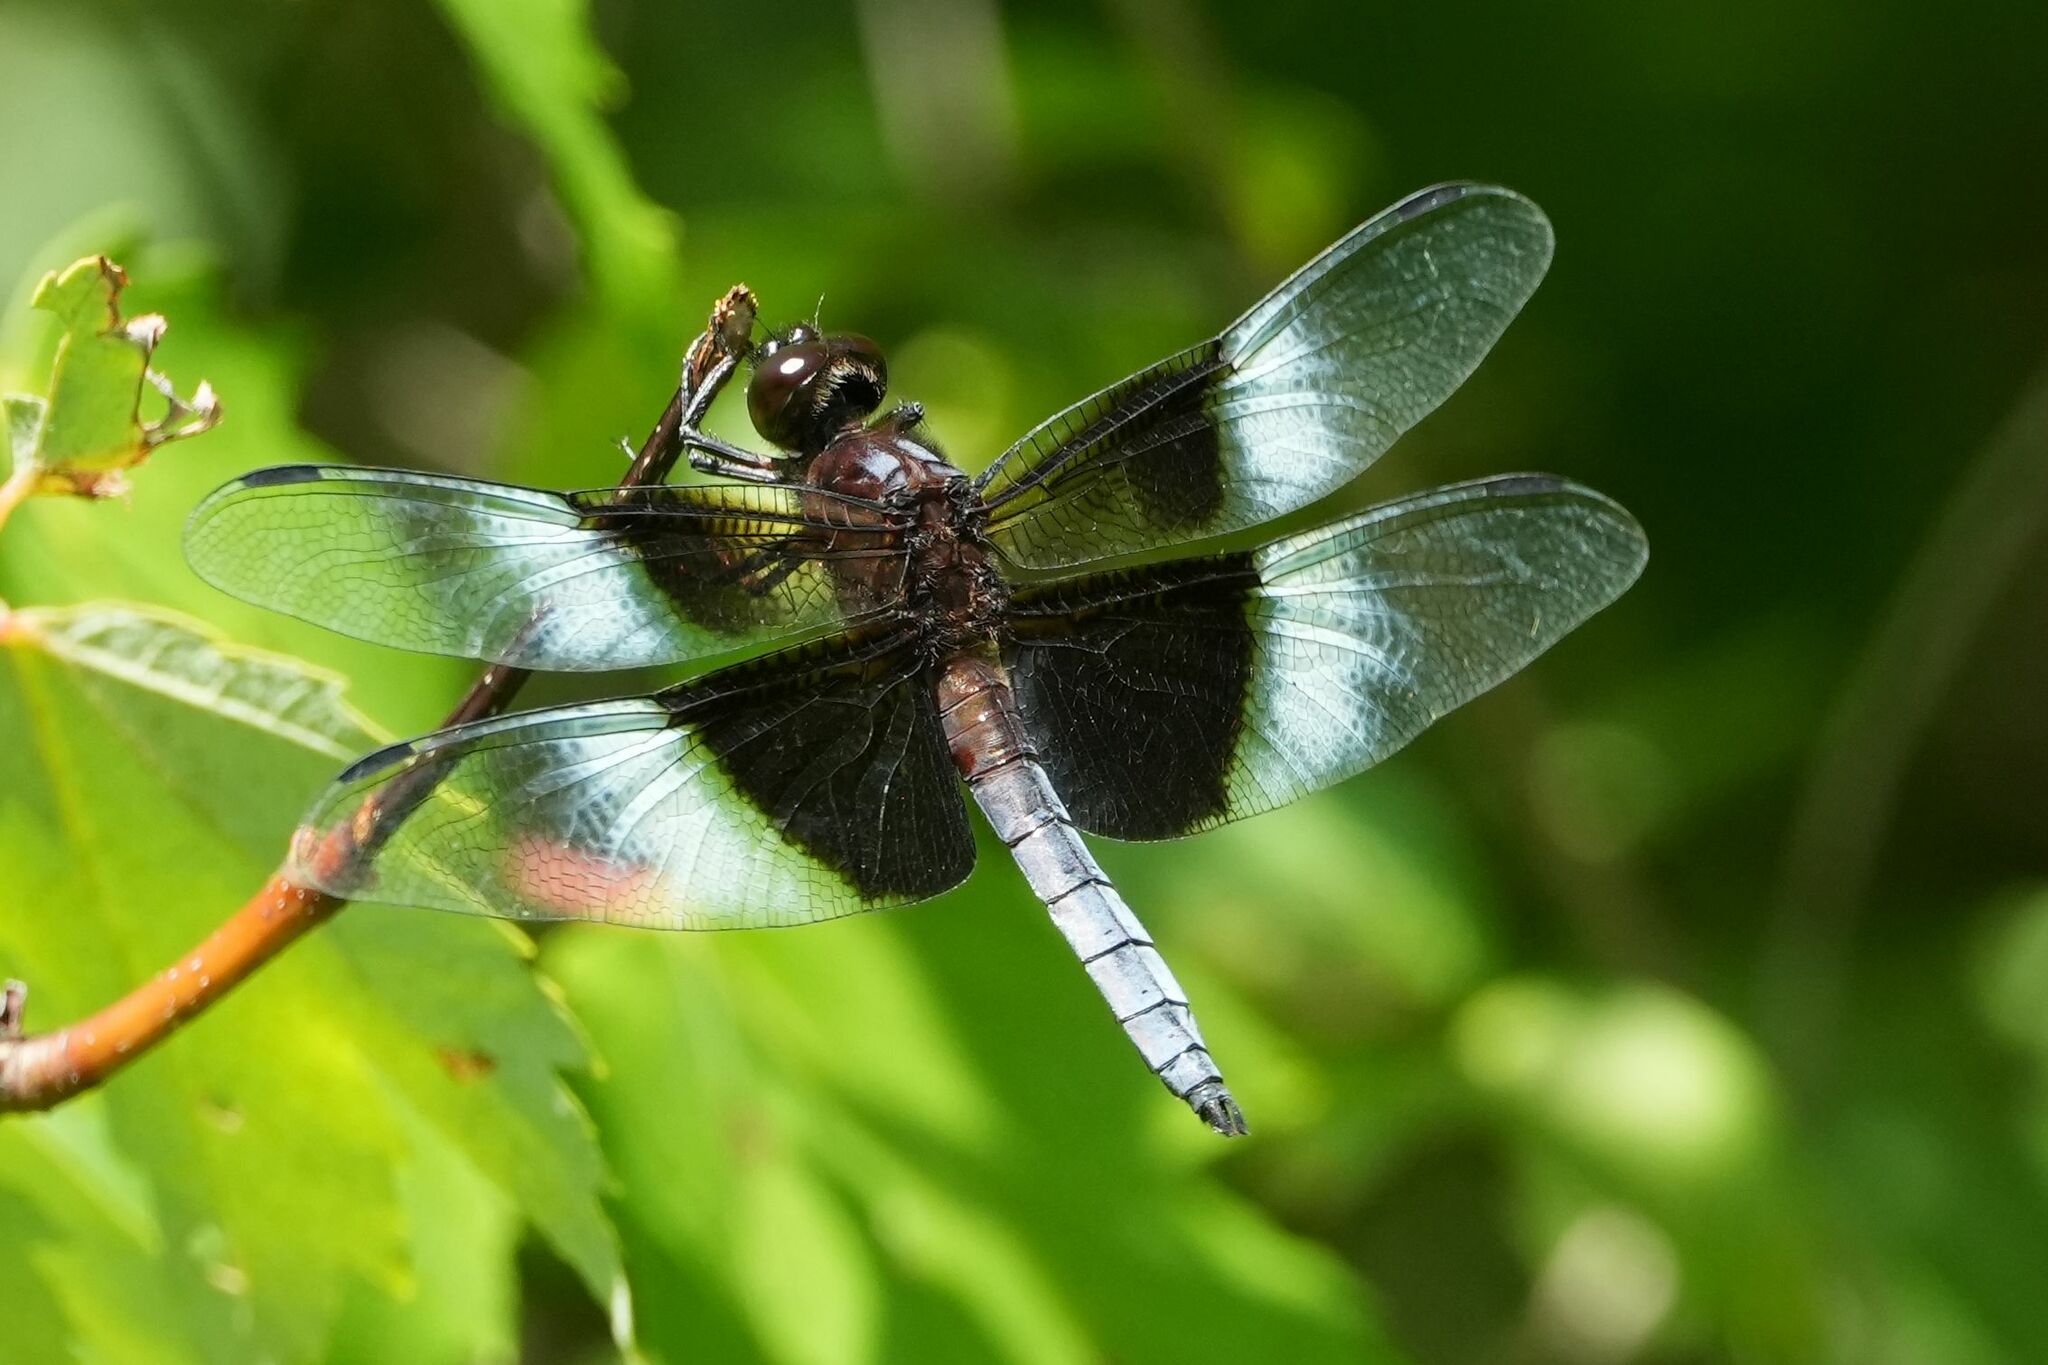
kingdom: Animalia
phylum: Arthropoda
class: Insecta
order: Odonata
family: Libellulidae
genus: Libellula
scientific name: Libellula luctuosa
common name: Widow skimmer
